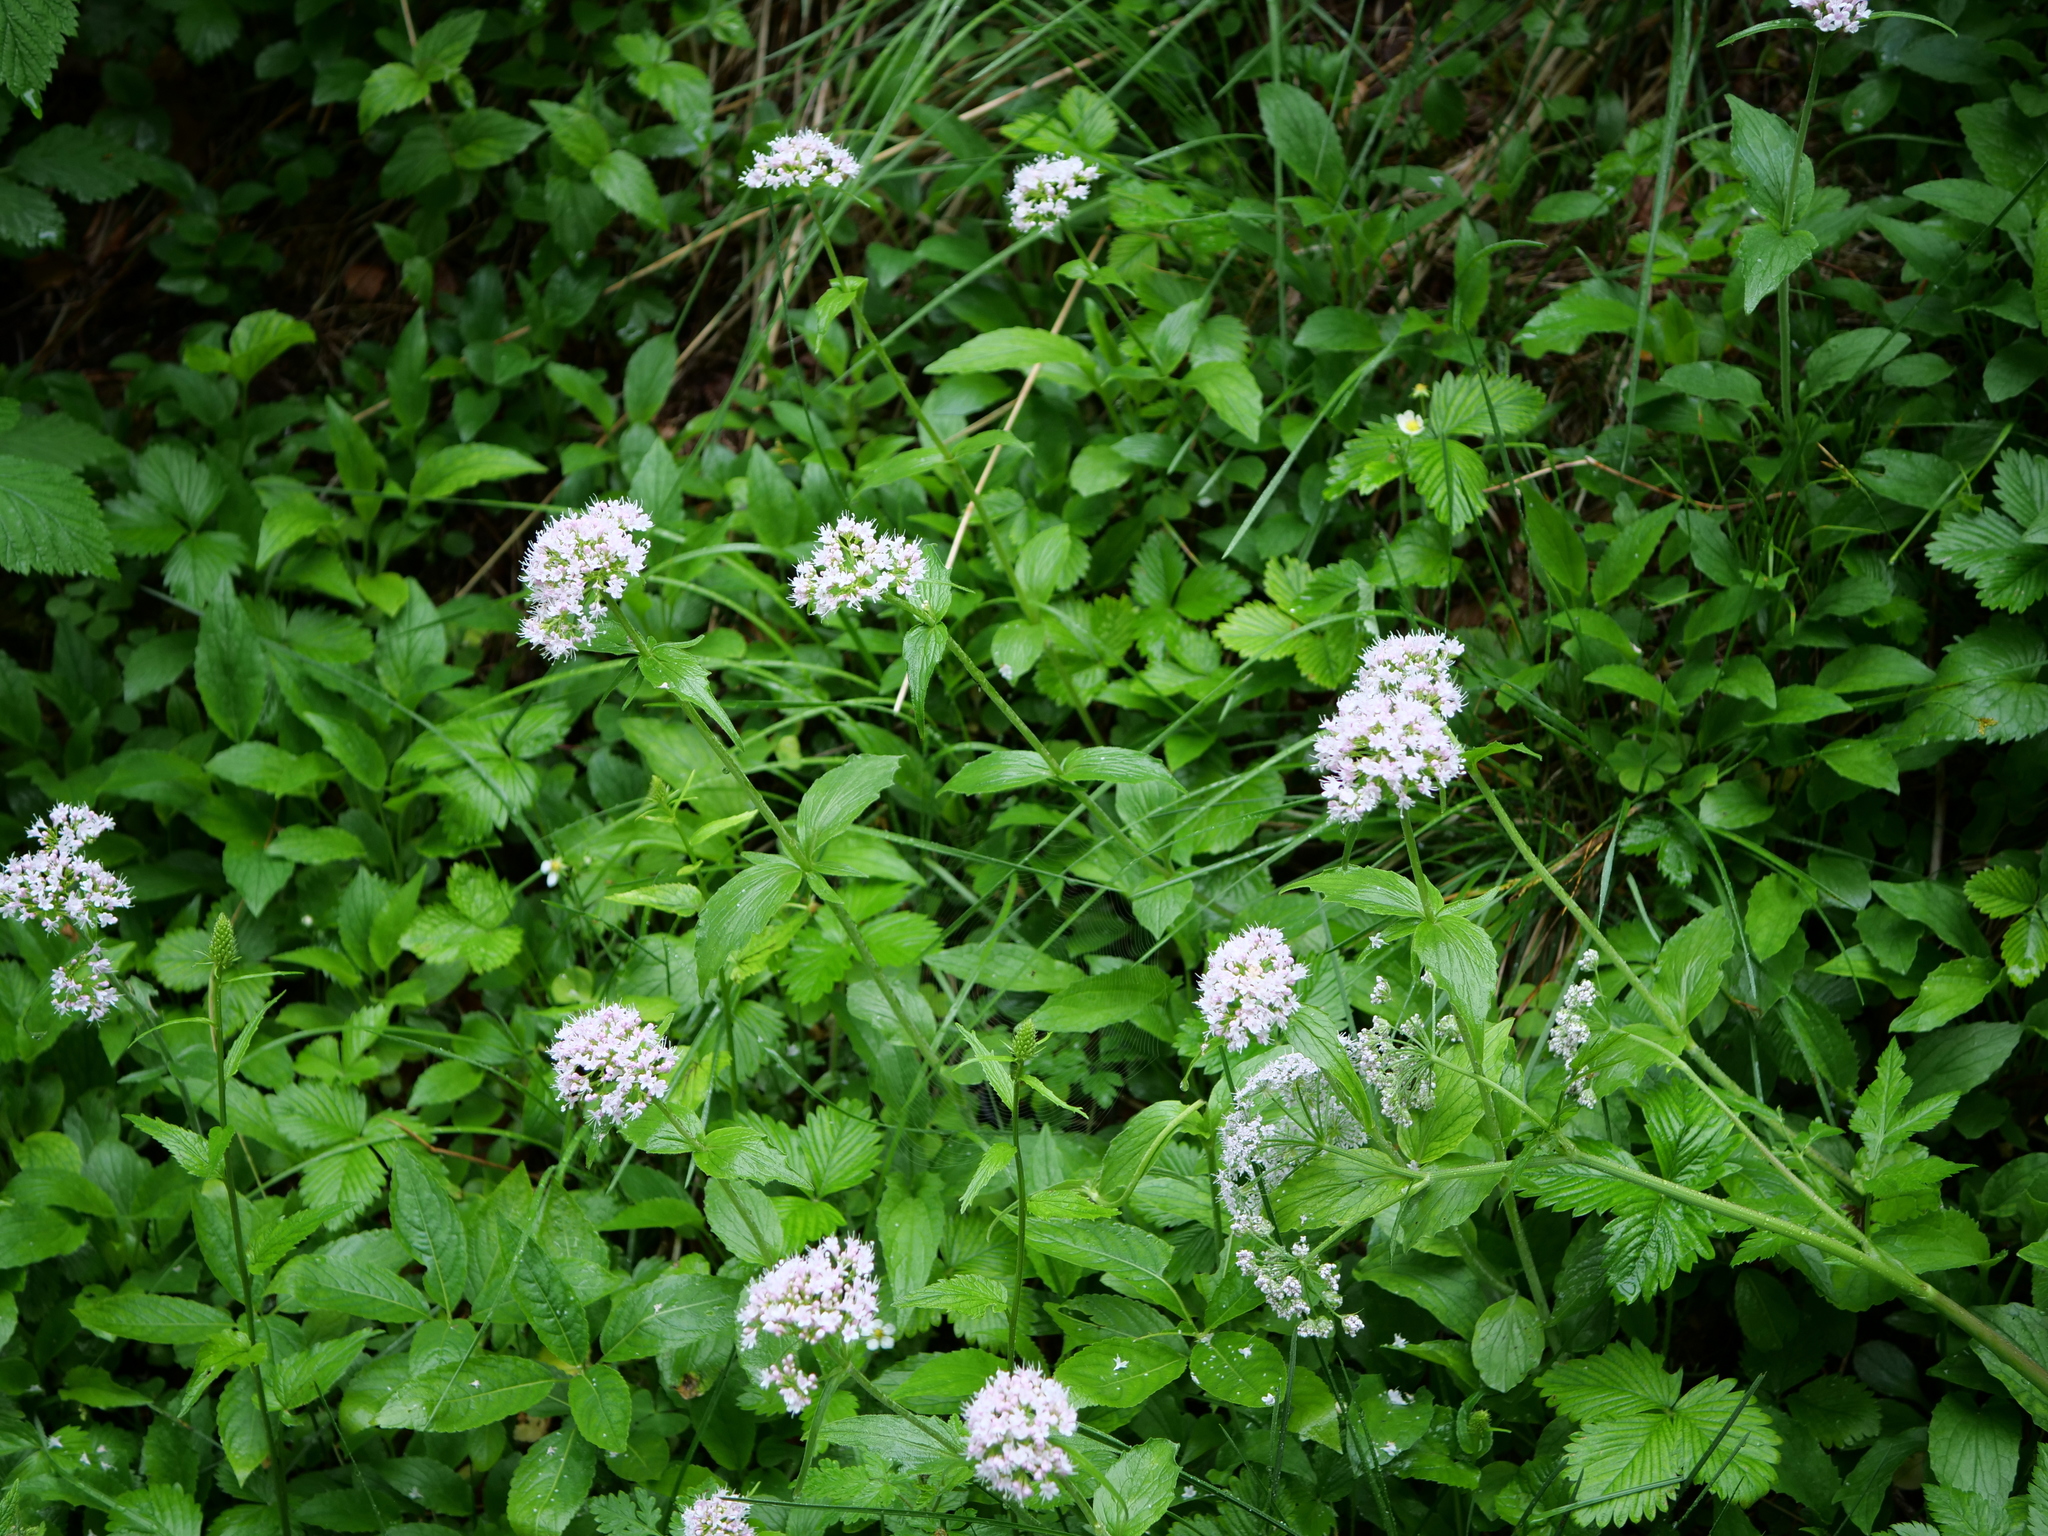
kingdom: Plantae
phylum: Tracheophyta
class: Magnoliopsida
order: Dipsacales
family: Caprifoliaceae
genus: Valeriana
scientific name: Valeriana tripteris
